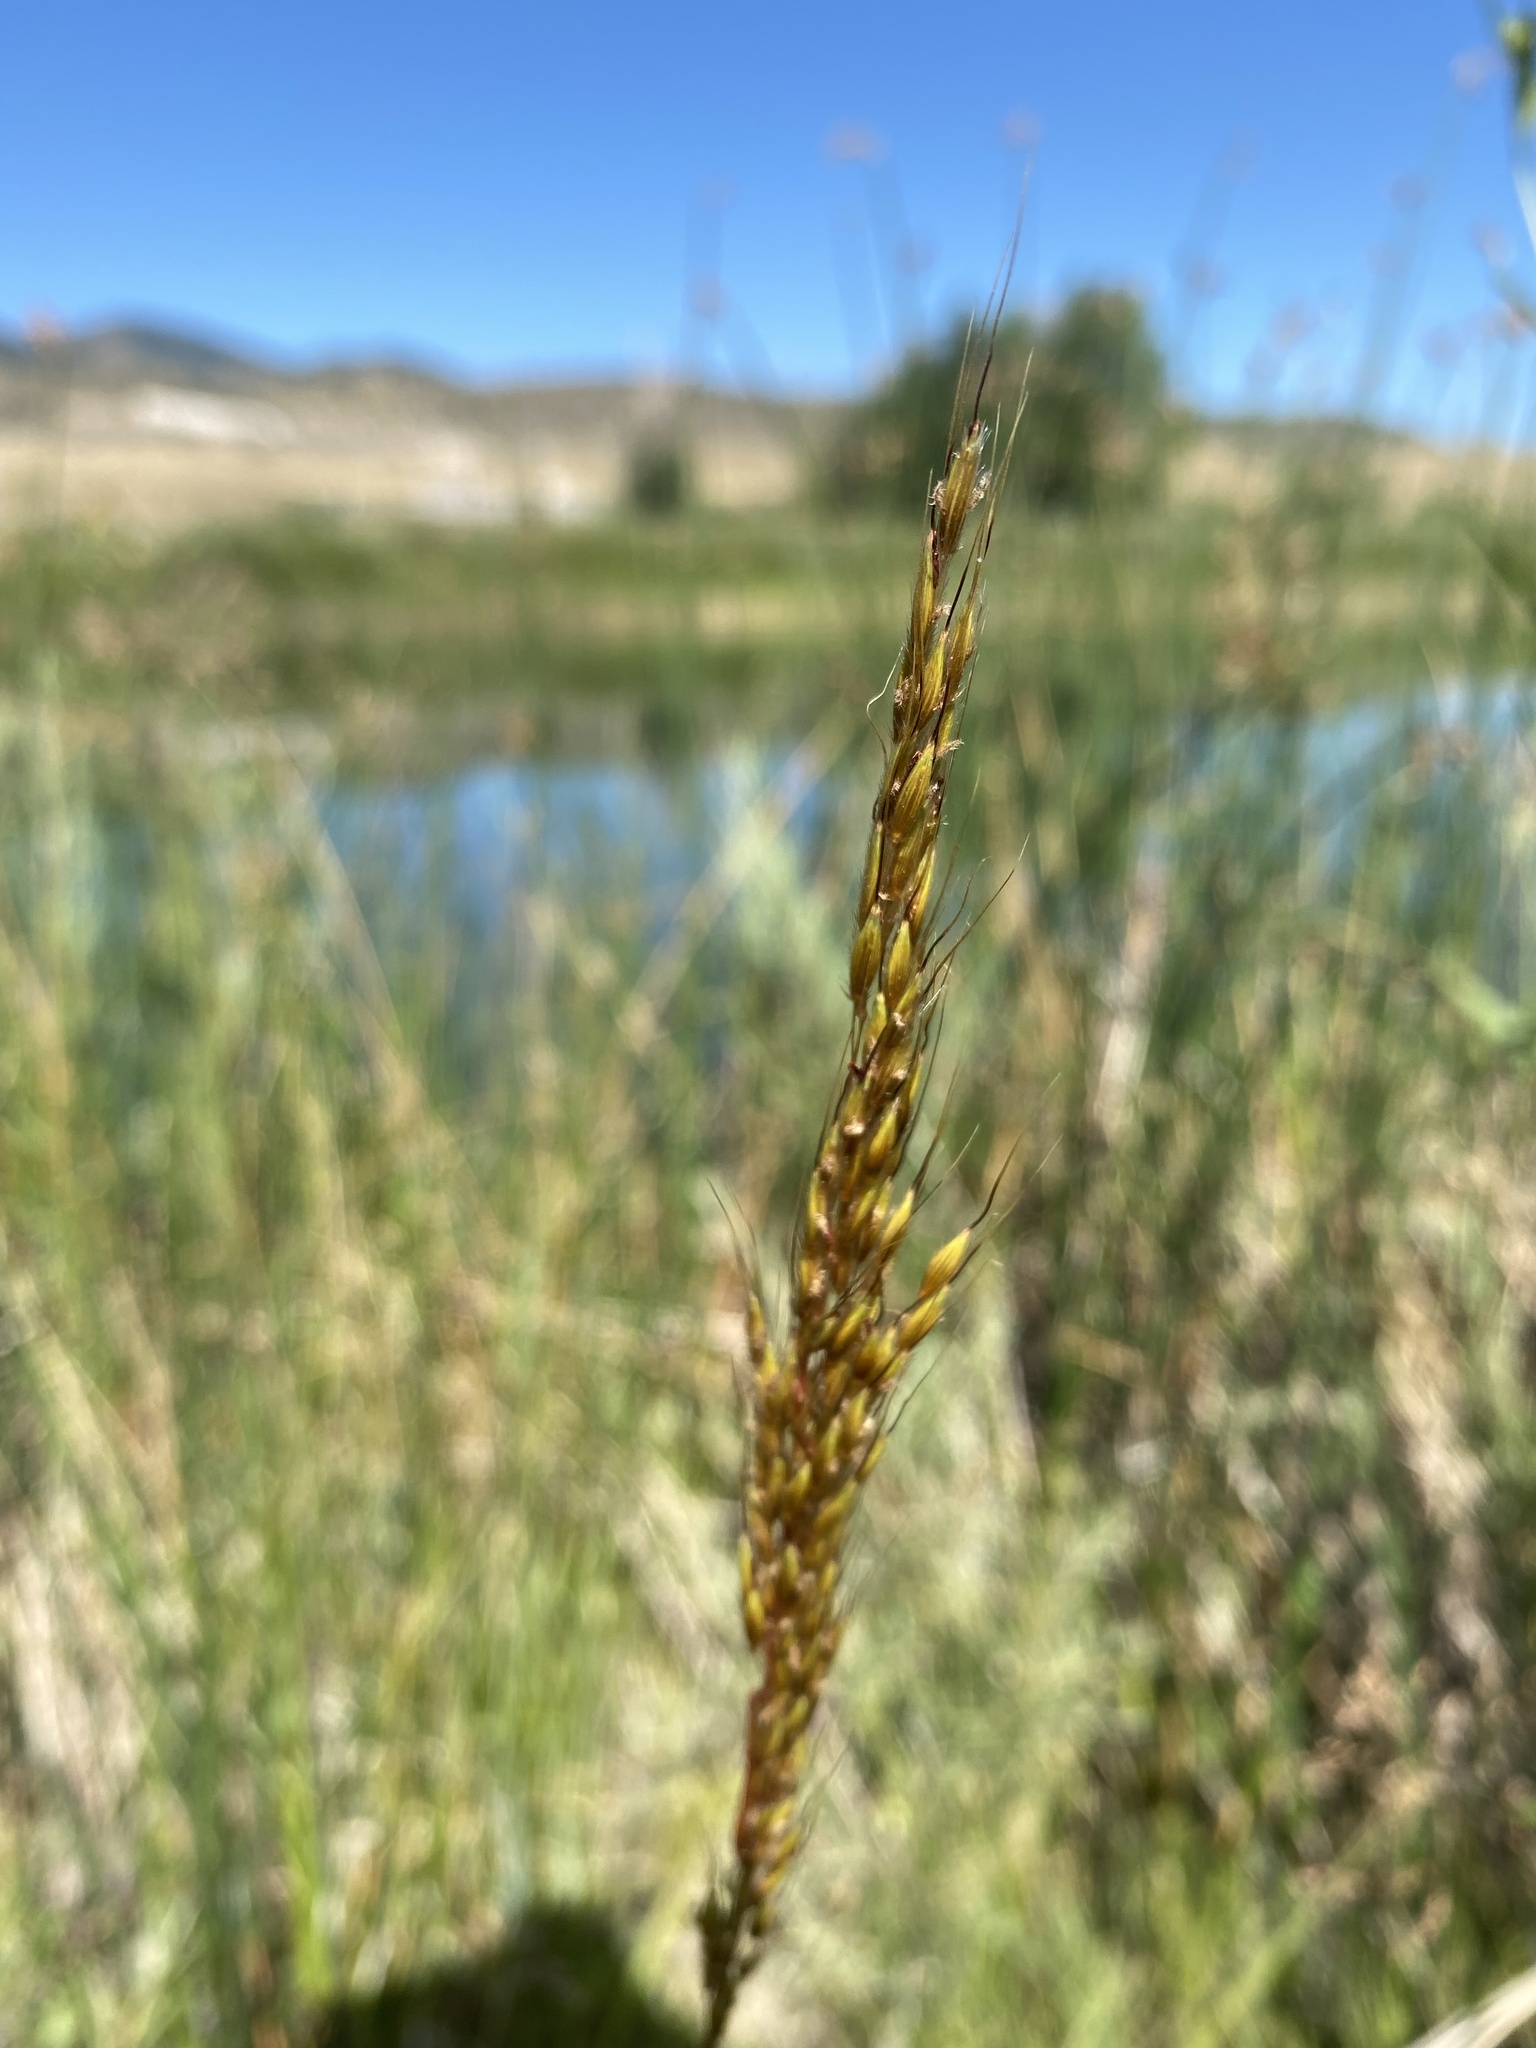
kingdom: Plantae
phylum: Tracheophyta
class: Liliopsida
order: Poales
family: Poaceae
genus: Sorghastrum
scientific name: Sorghastrum nutans
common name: Indian grass
